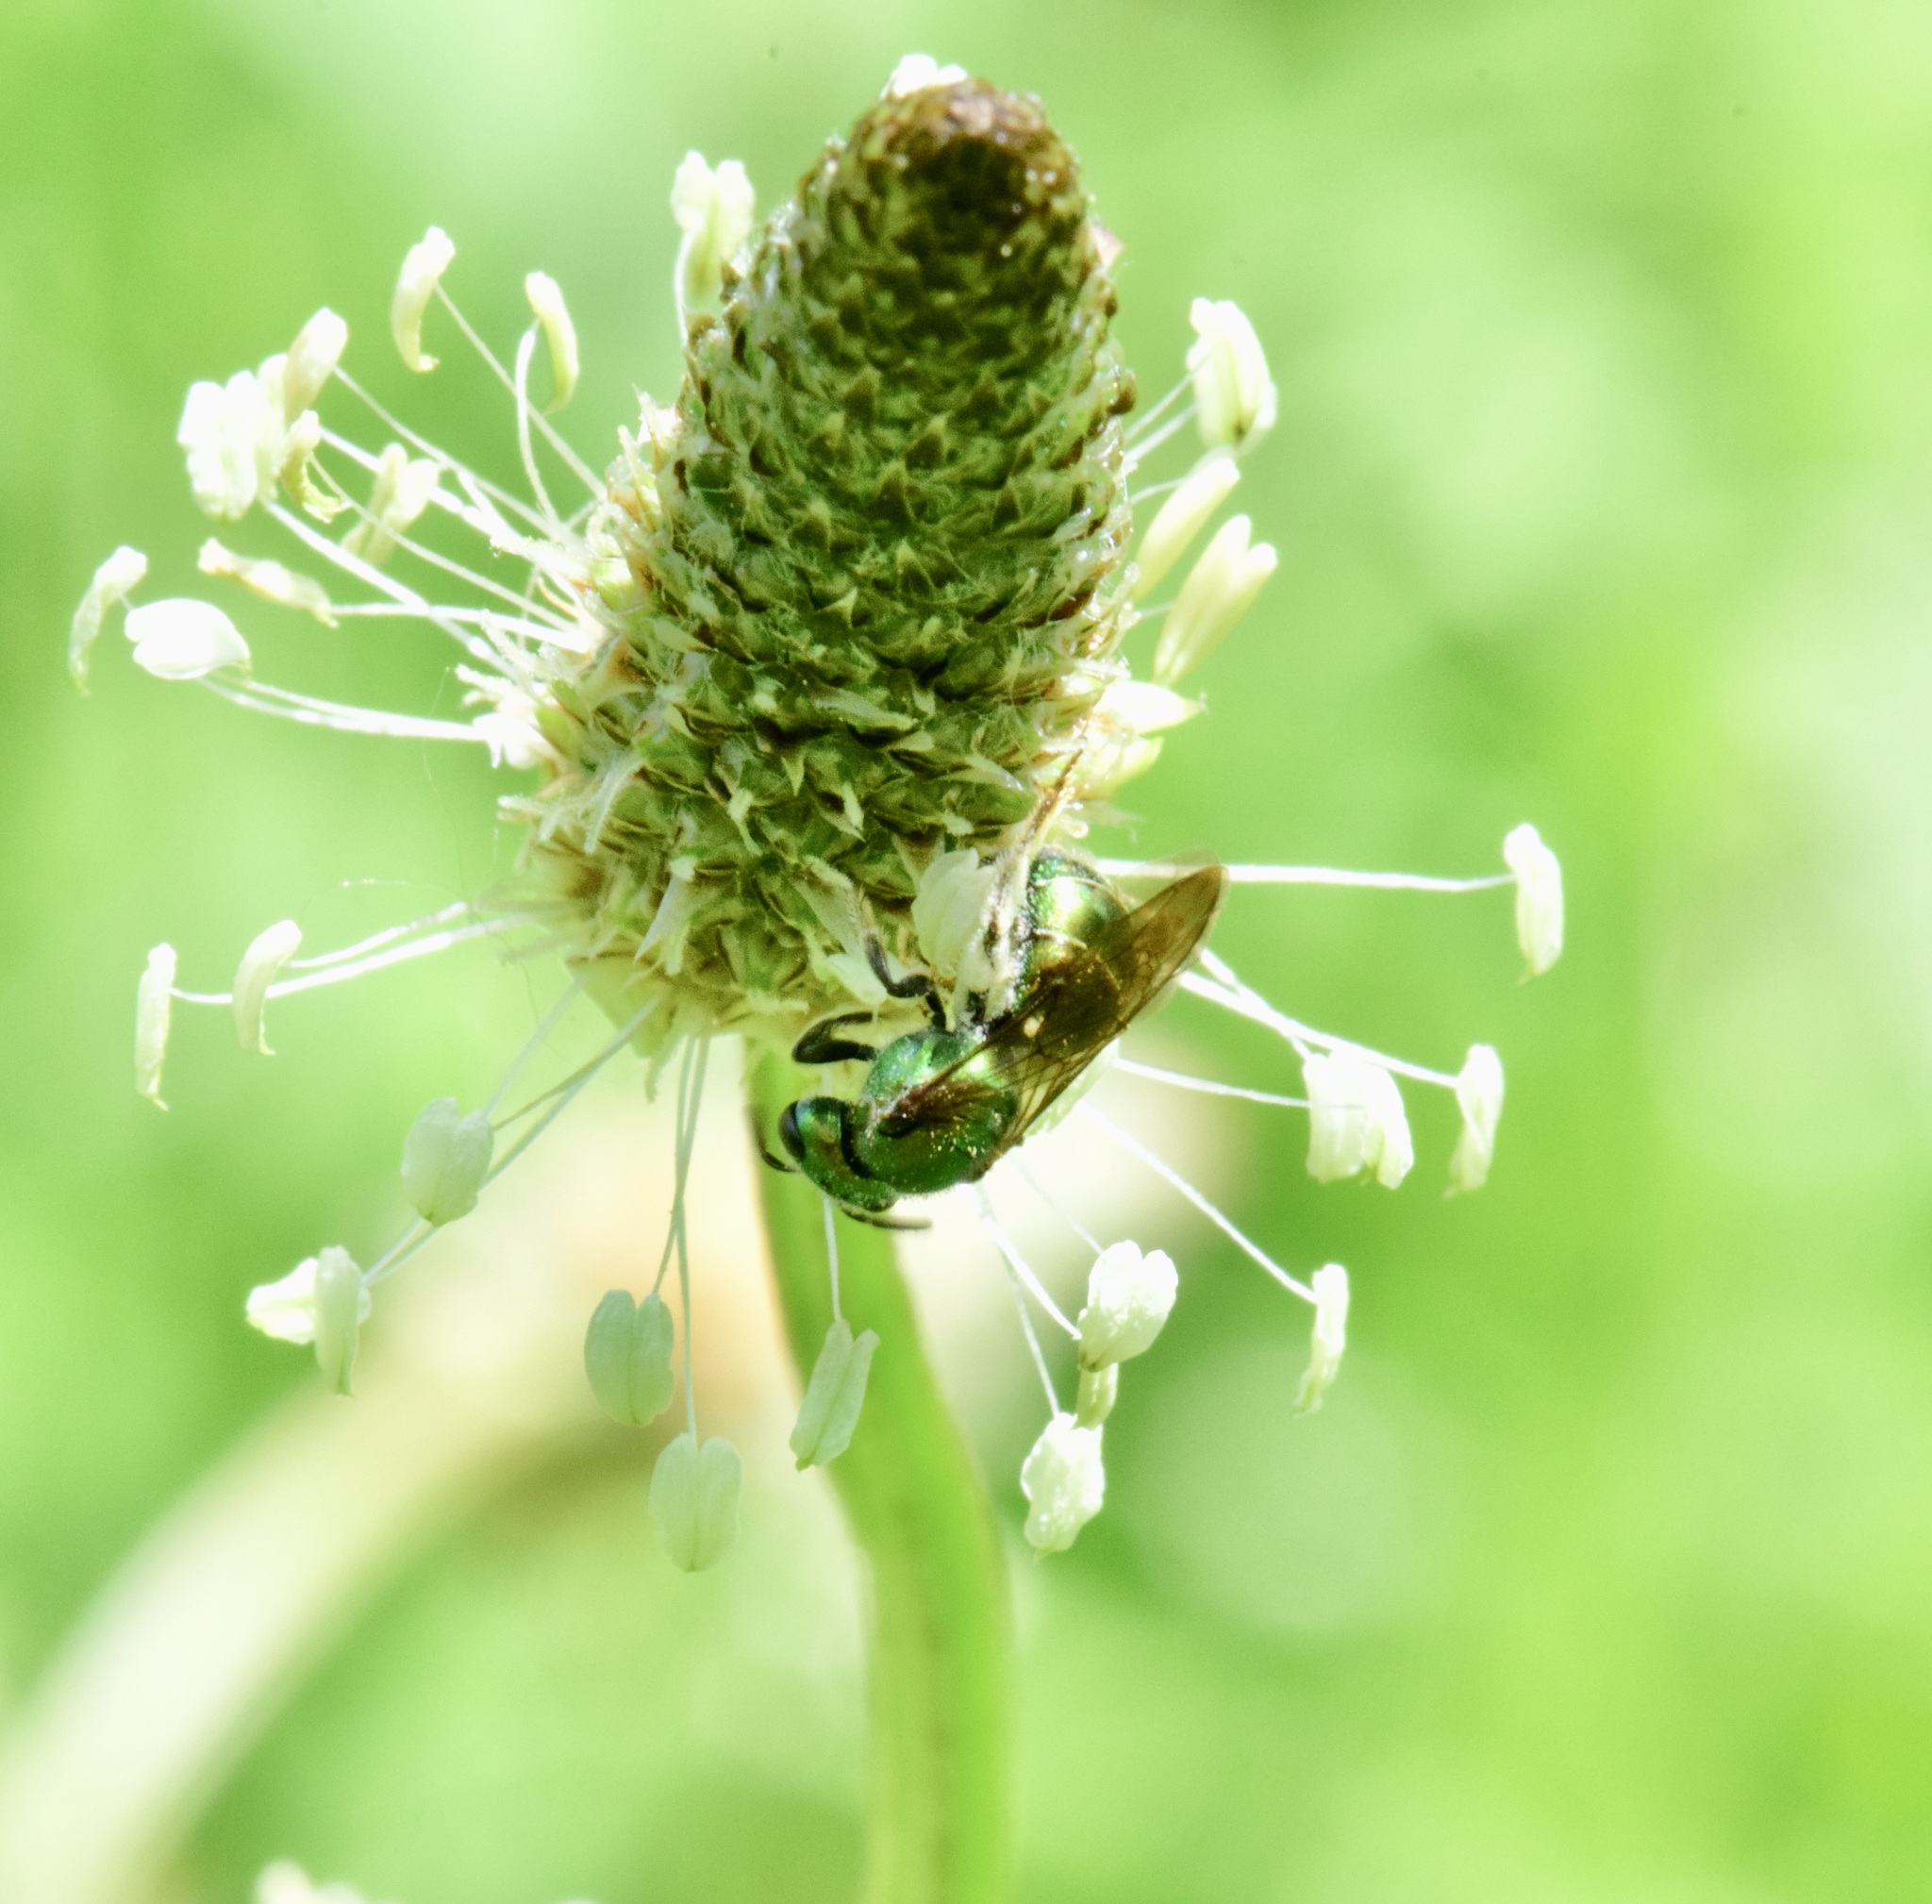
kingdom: Animalia
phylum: Arthropoda
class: Insecta
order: Hymenoptera
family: Halictidae
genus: Augochlora
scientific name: Augochlora pura
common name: Pure green sweat bee
